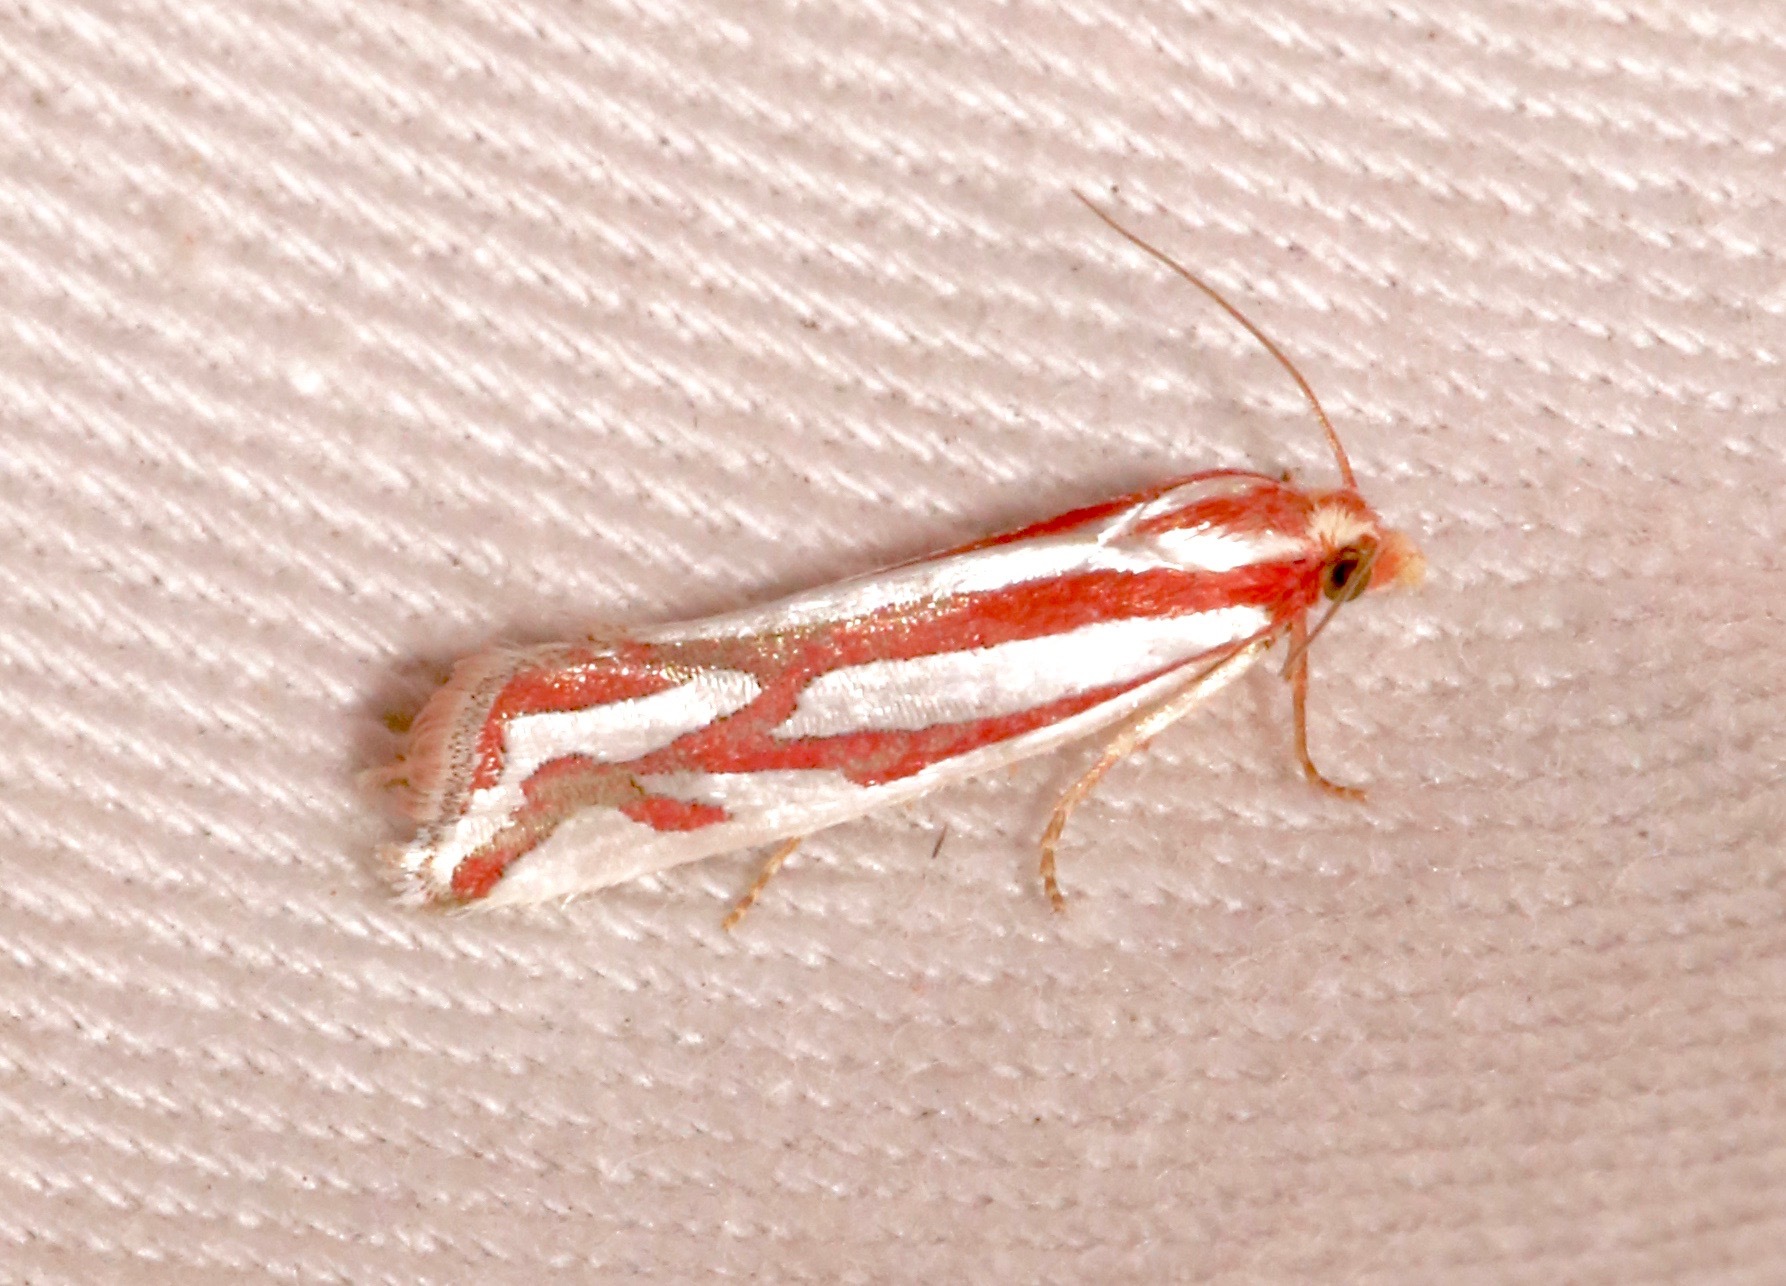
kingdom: Animalia
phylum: Arthropoda
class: Insecta
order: Lepidoptera
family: Tortricidae
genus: Pelochrista
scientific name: Pelochrista fernaldana
